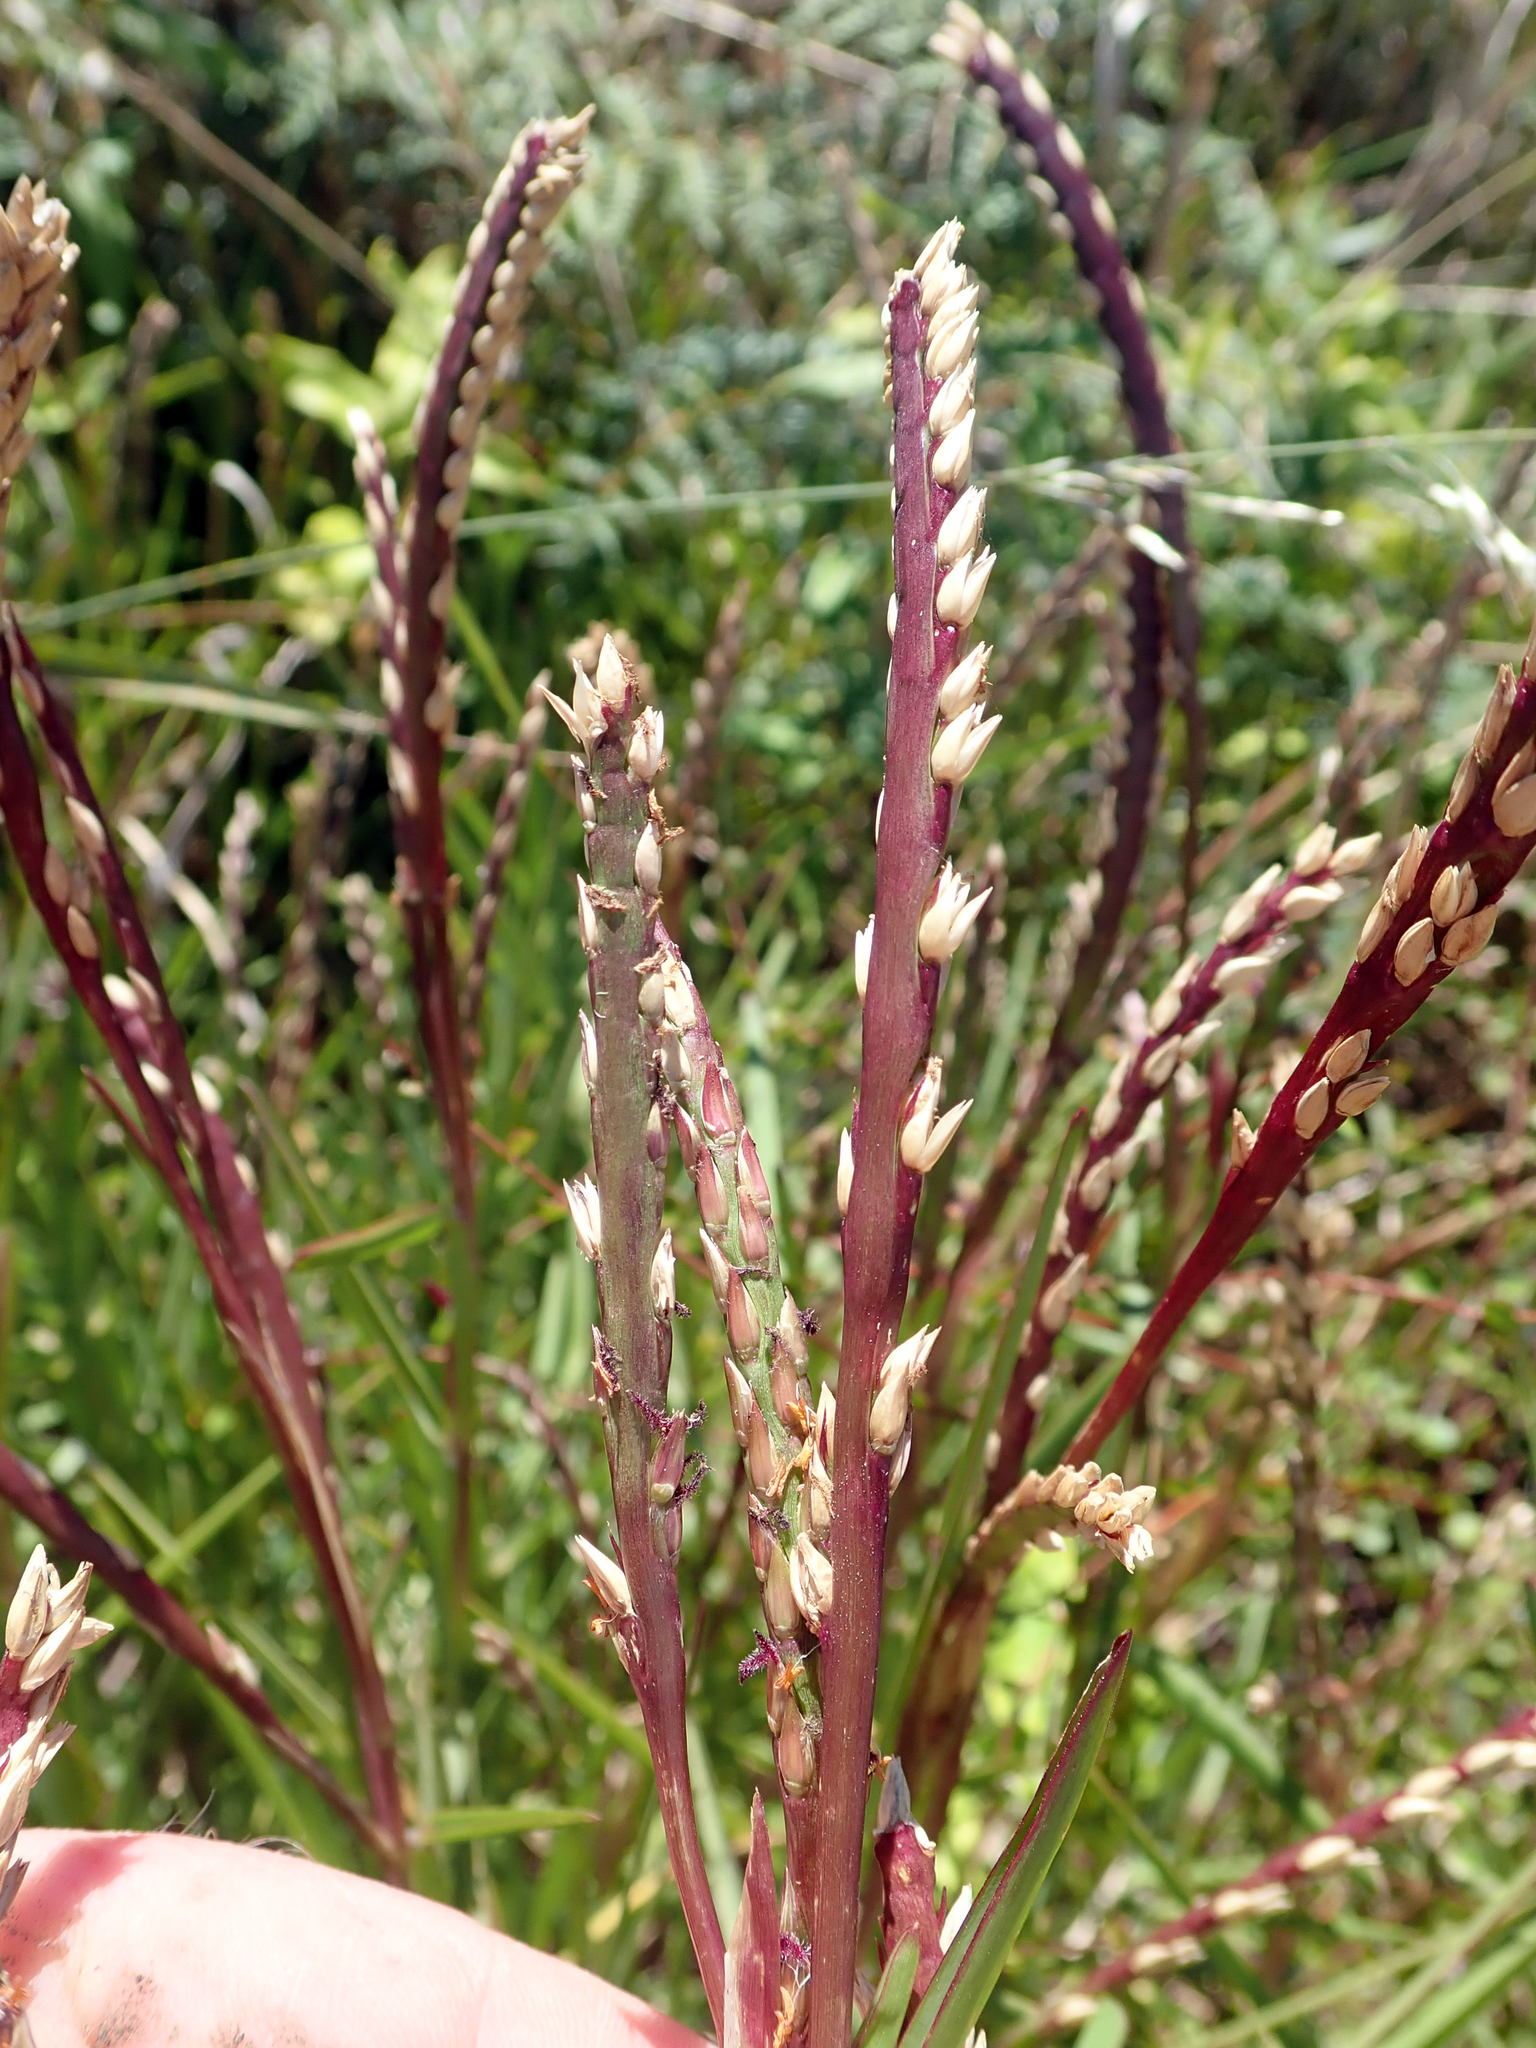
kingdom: Plantae
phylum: Tracheophyta
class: Liliopsida
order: Poales
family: Poaceae
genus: Stenotaphrum
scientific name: Stenotaphrum secundatum
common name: St. augustine grass
